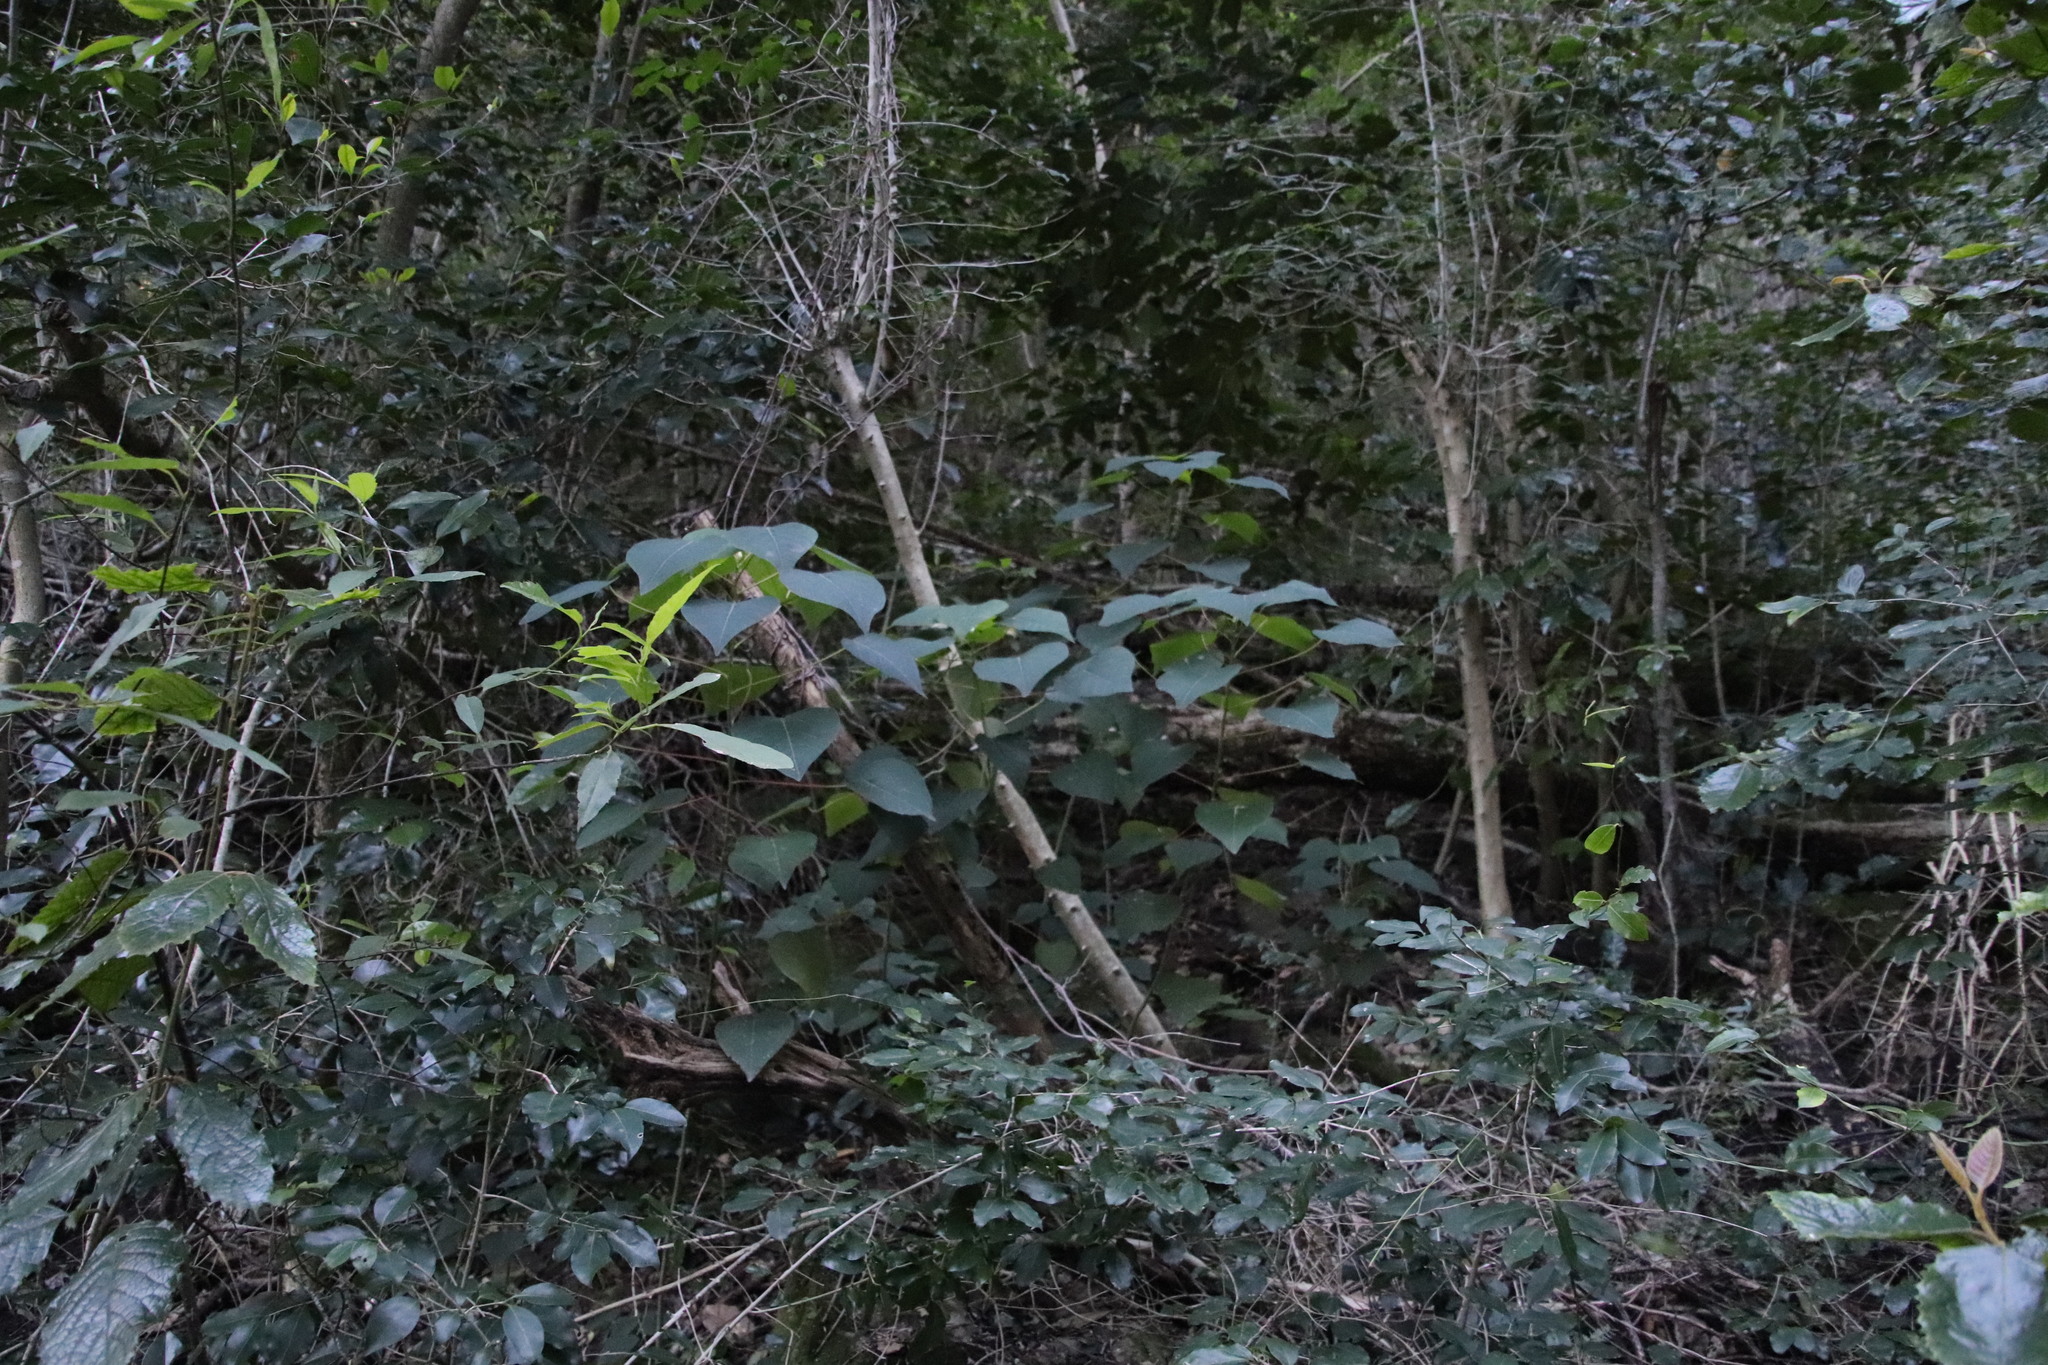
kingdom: Plantae
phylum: Tracheophyta
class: Magnoliopsida
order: Malpighiales
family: Euphorbiaceae
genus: Homalanthus
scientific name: Homalanthus populifolius
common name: Queensland poplar
